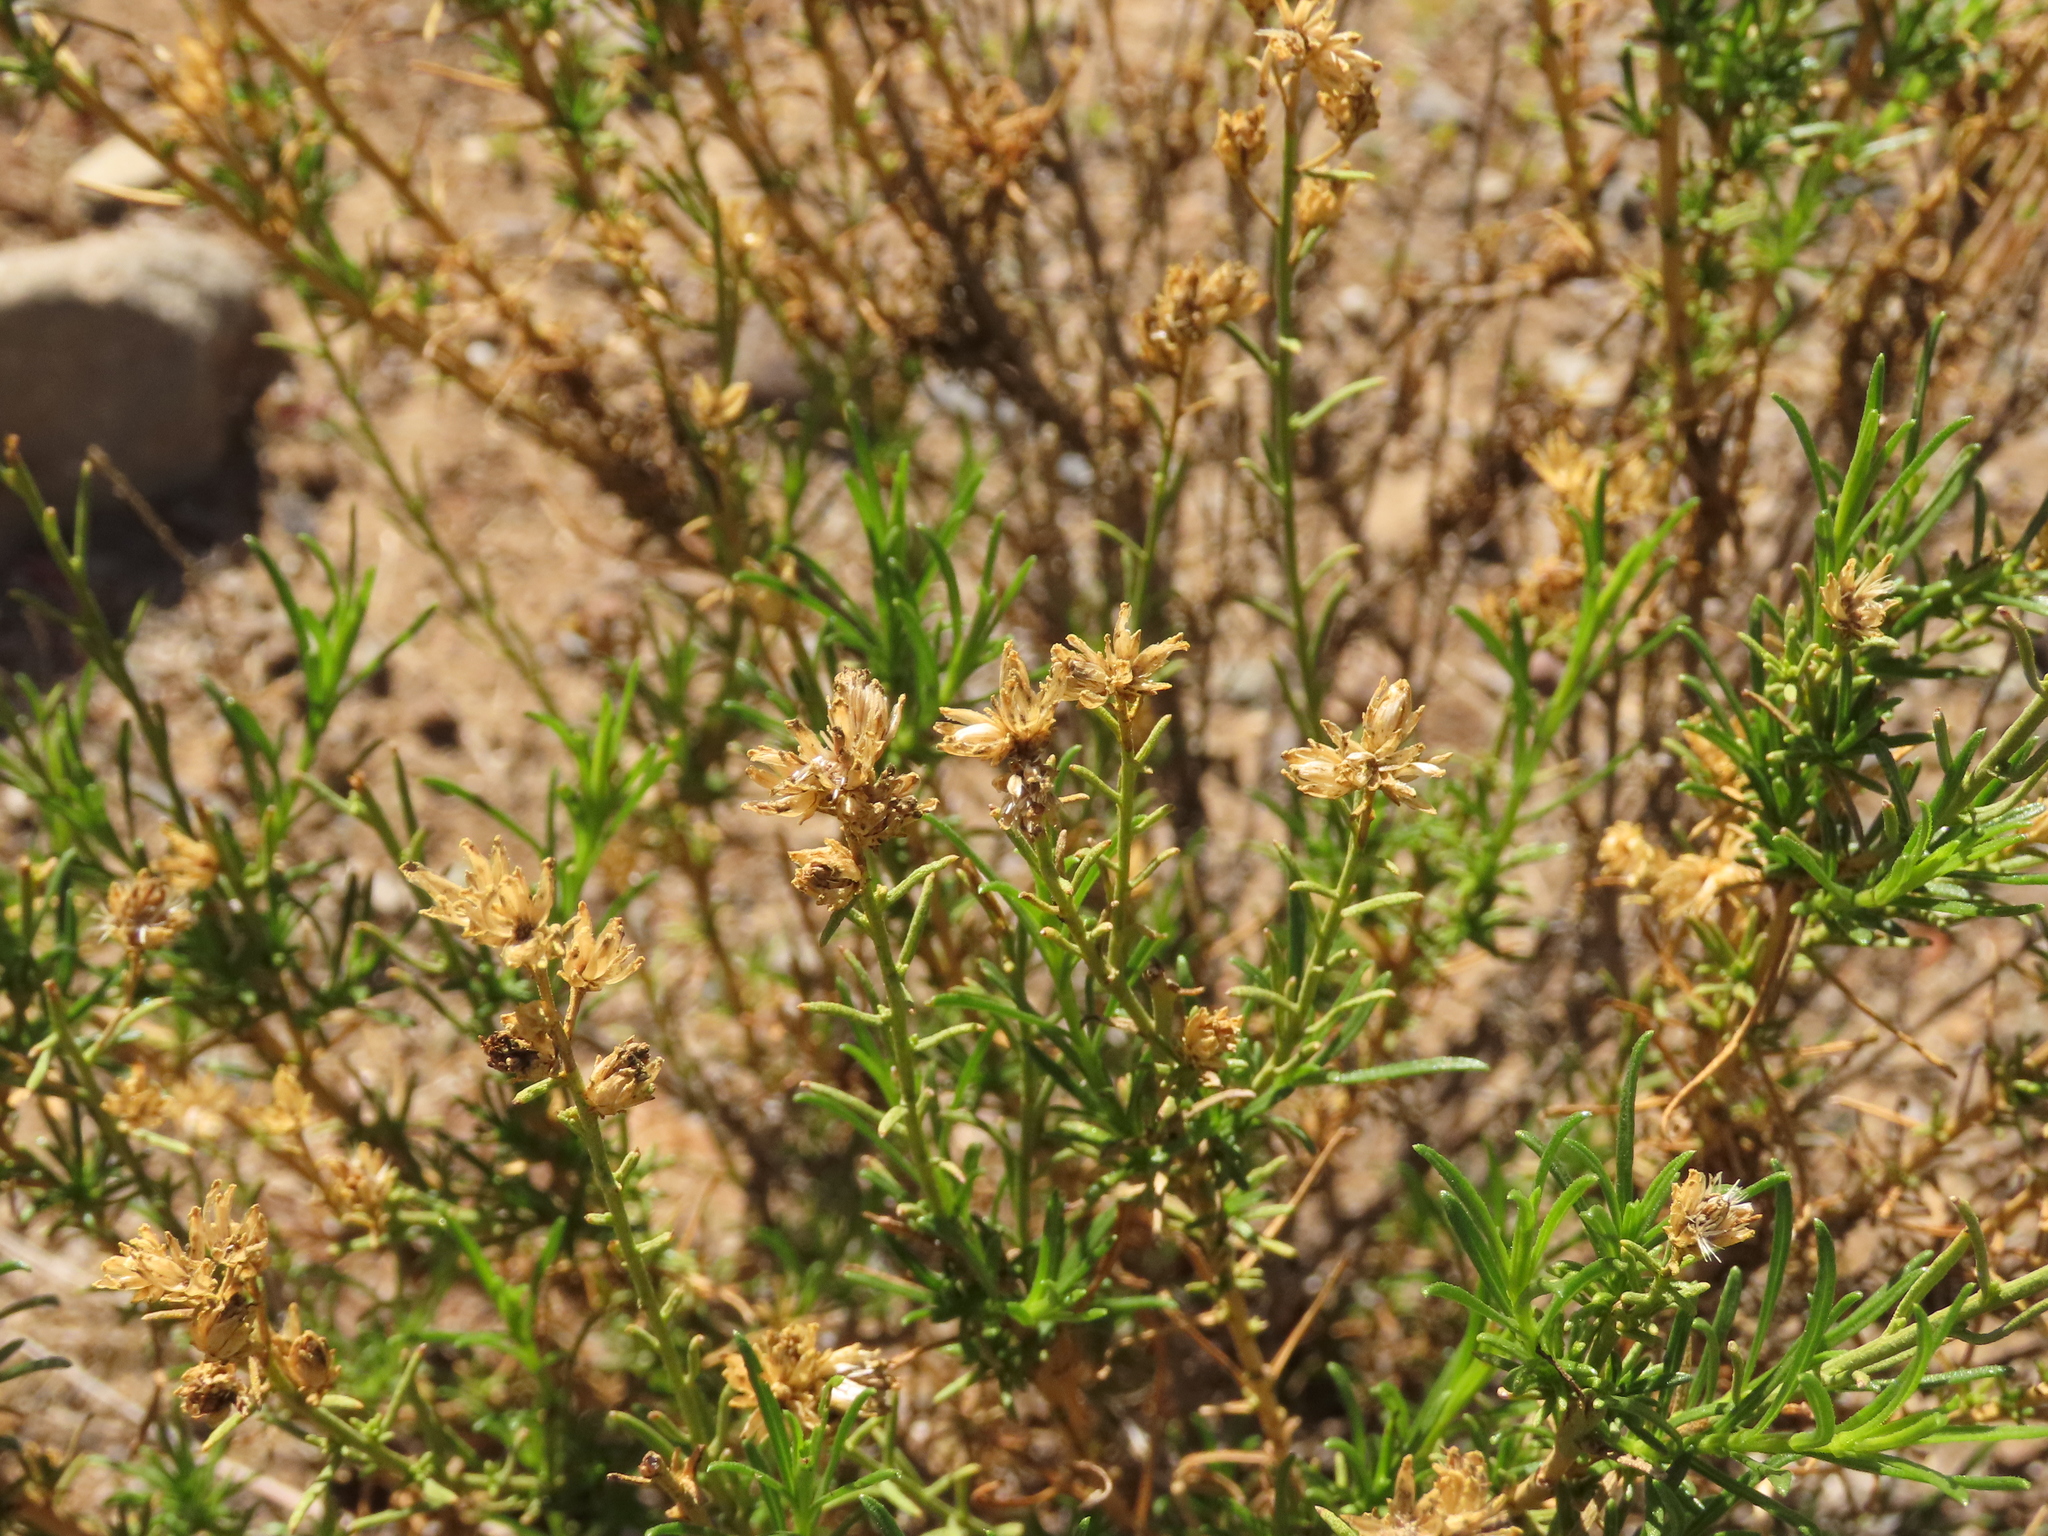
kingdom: Plantae
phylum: Tracheophyta
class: Magnoliopsida
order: Asterales
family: Asteraceae
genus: Gutierrezia
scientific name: Gutierrezia resinosa
